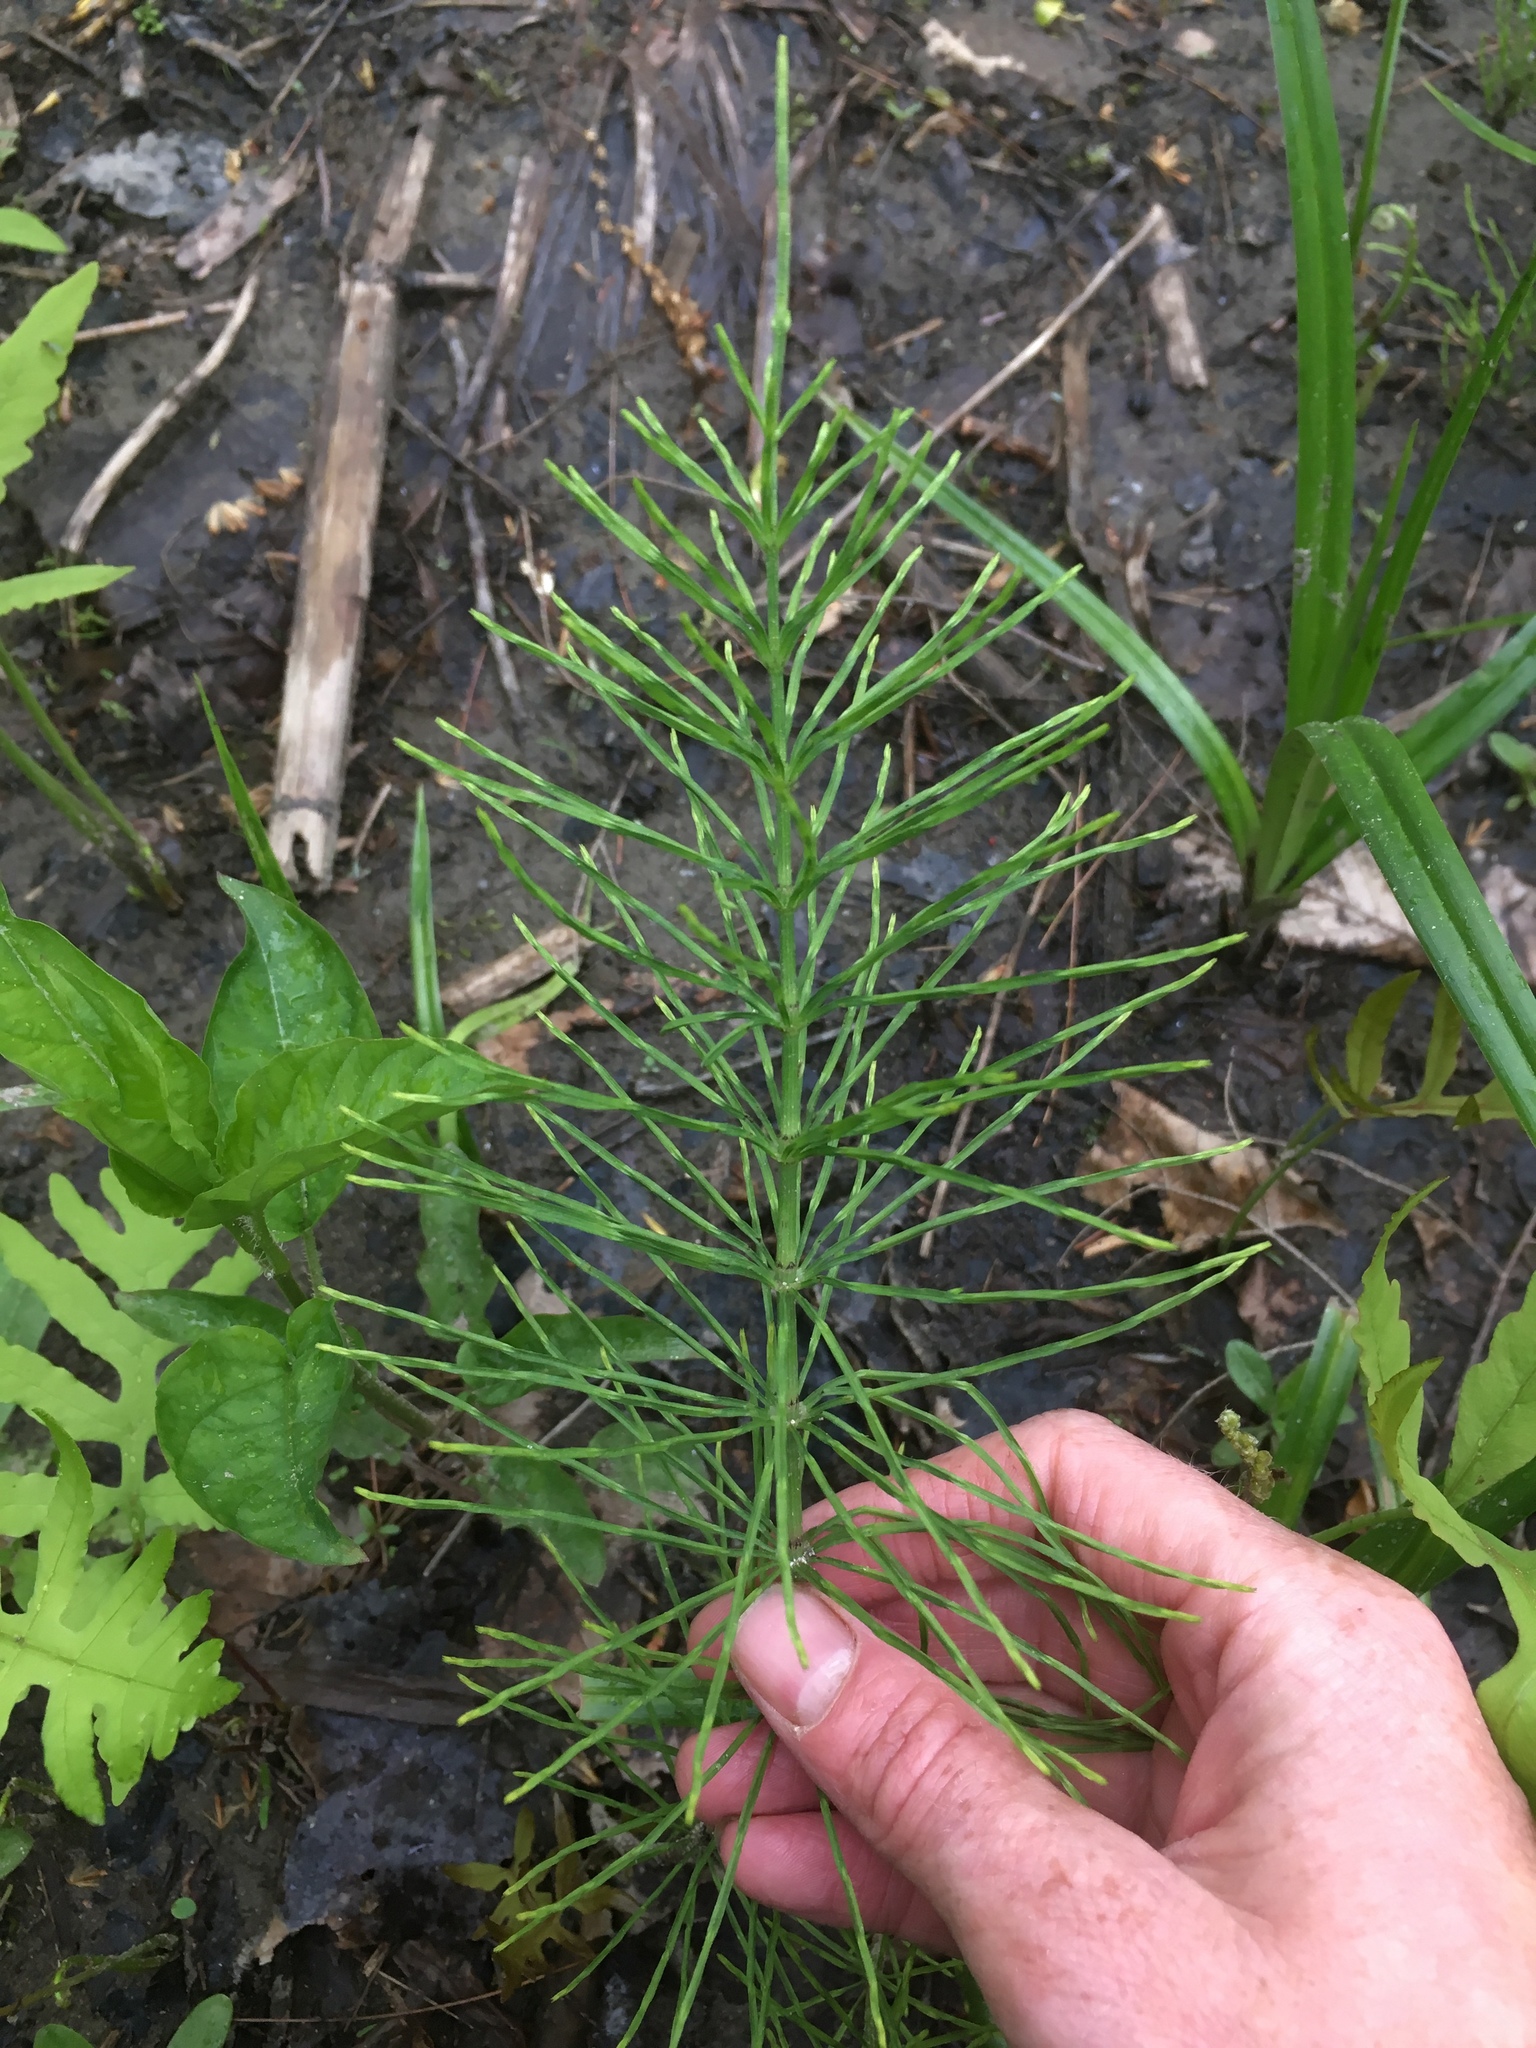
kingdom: Plantae
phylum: Tracheophyta
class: Polypodiopsida
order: Equisetales
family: Equisetaceae
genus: Equisetum
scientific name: Equisetum arvense
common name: Field horsetail
